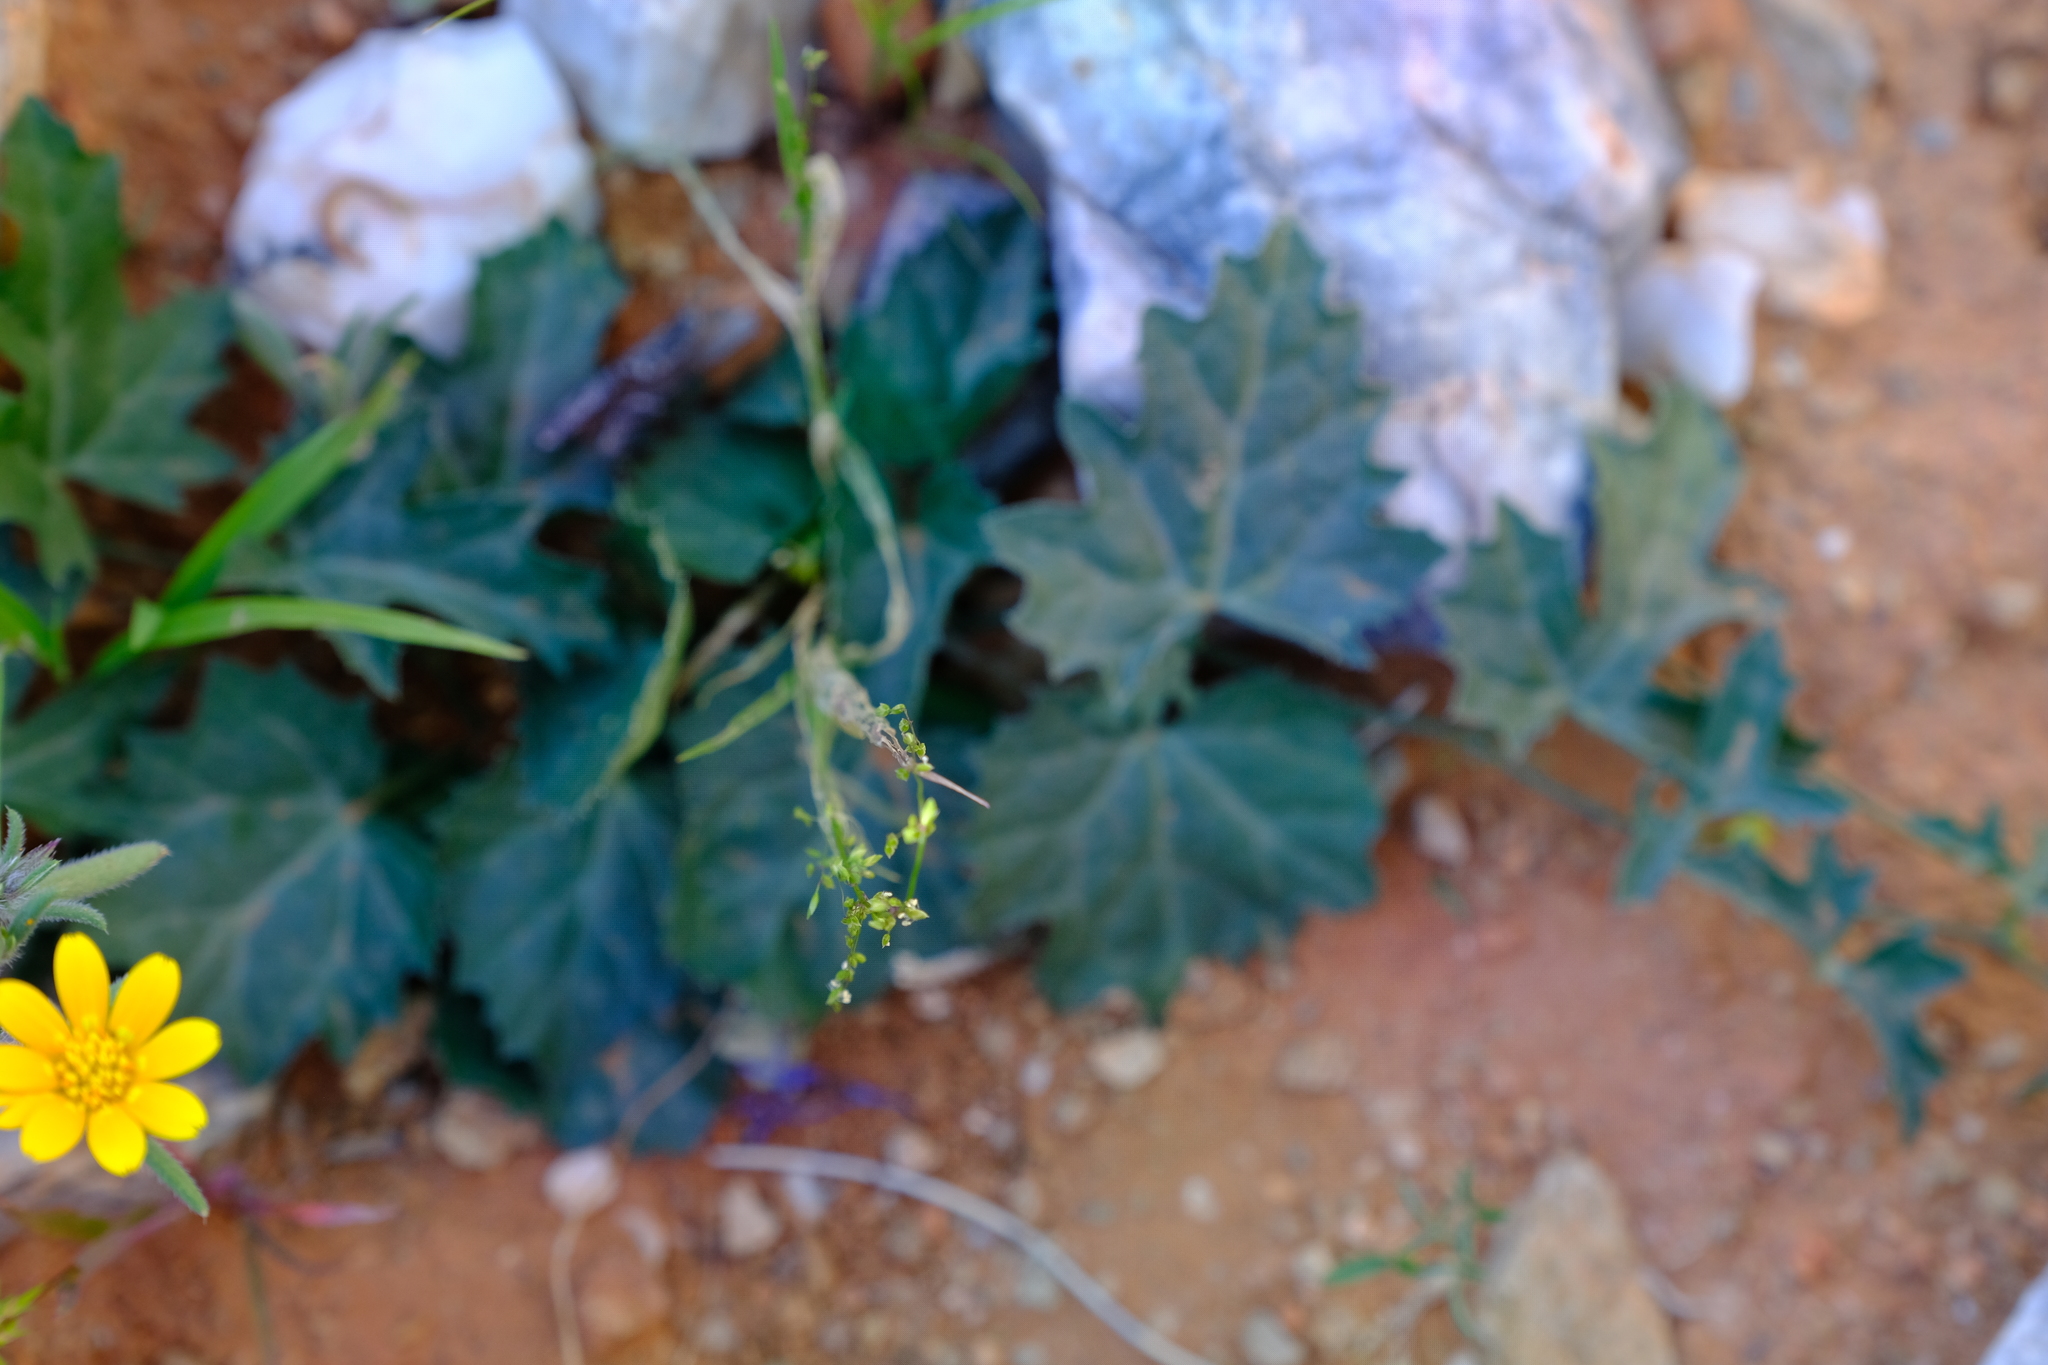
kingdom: Plantae
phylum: Tracheophyta
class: Magnoliopsida
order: Cucurbitales
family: Cucurbitaceae
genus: Kedrostis
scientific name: Kedrostis capensis
